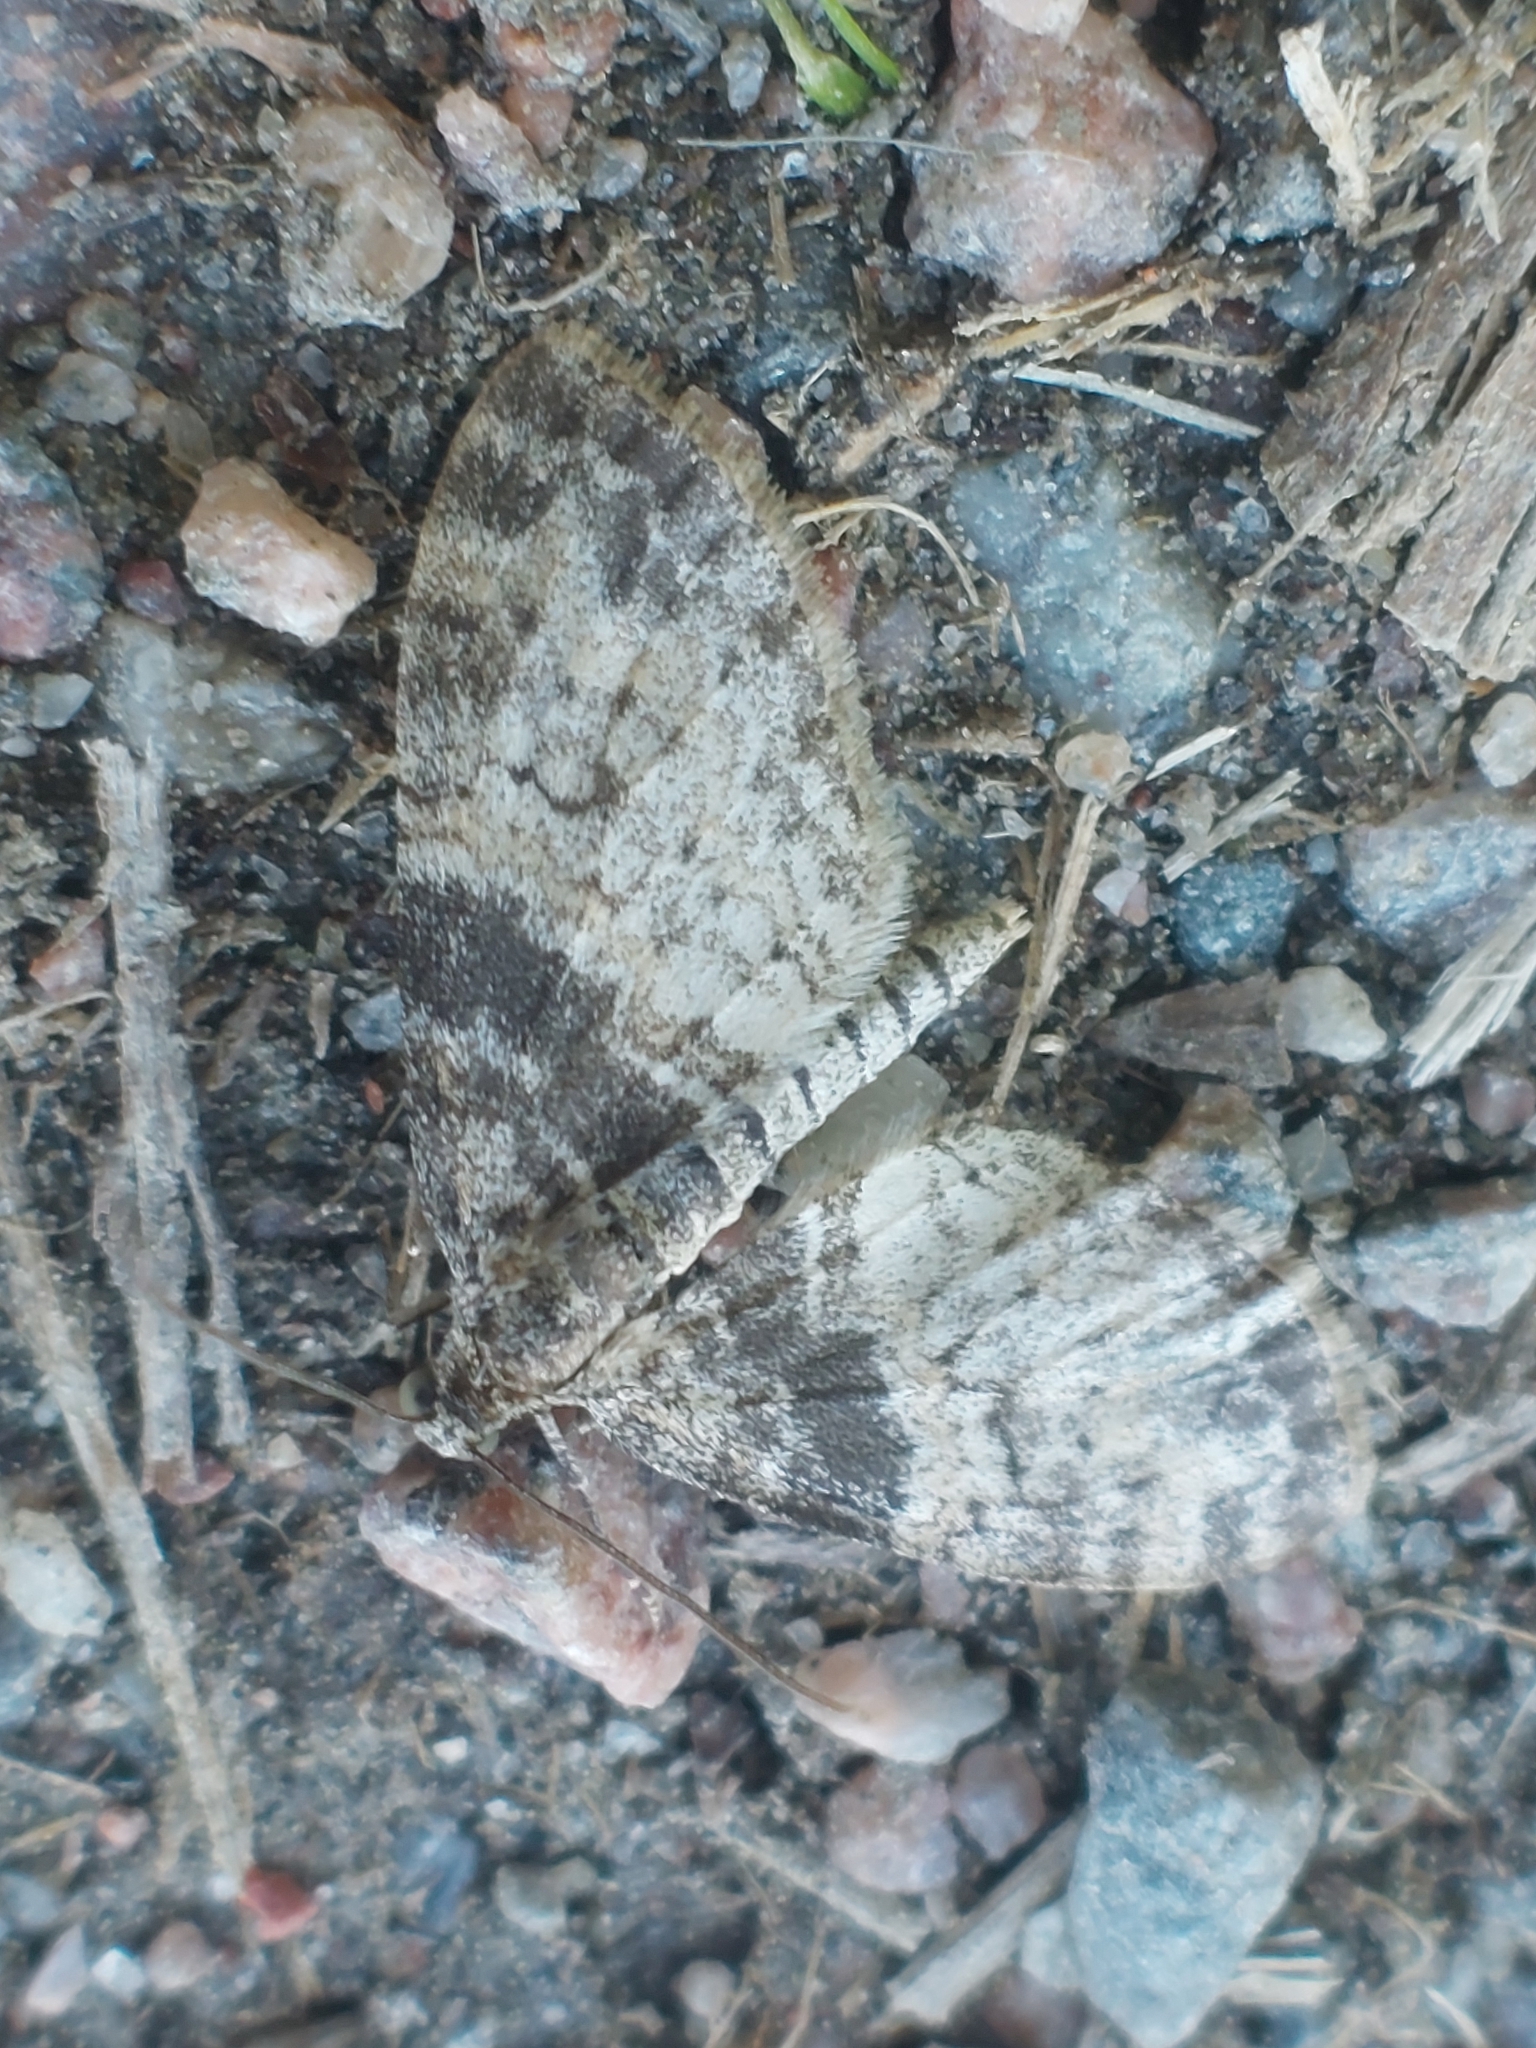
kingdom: Animalia
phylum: Arthropoda
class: Insecta
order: Lepidoptera
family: Geometridae
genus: Lobophora
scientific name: Lobophora halterata
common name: Seraphim
